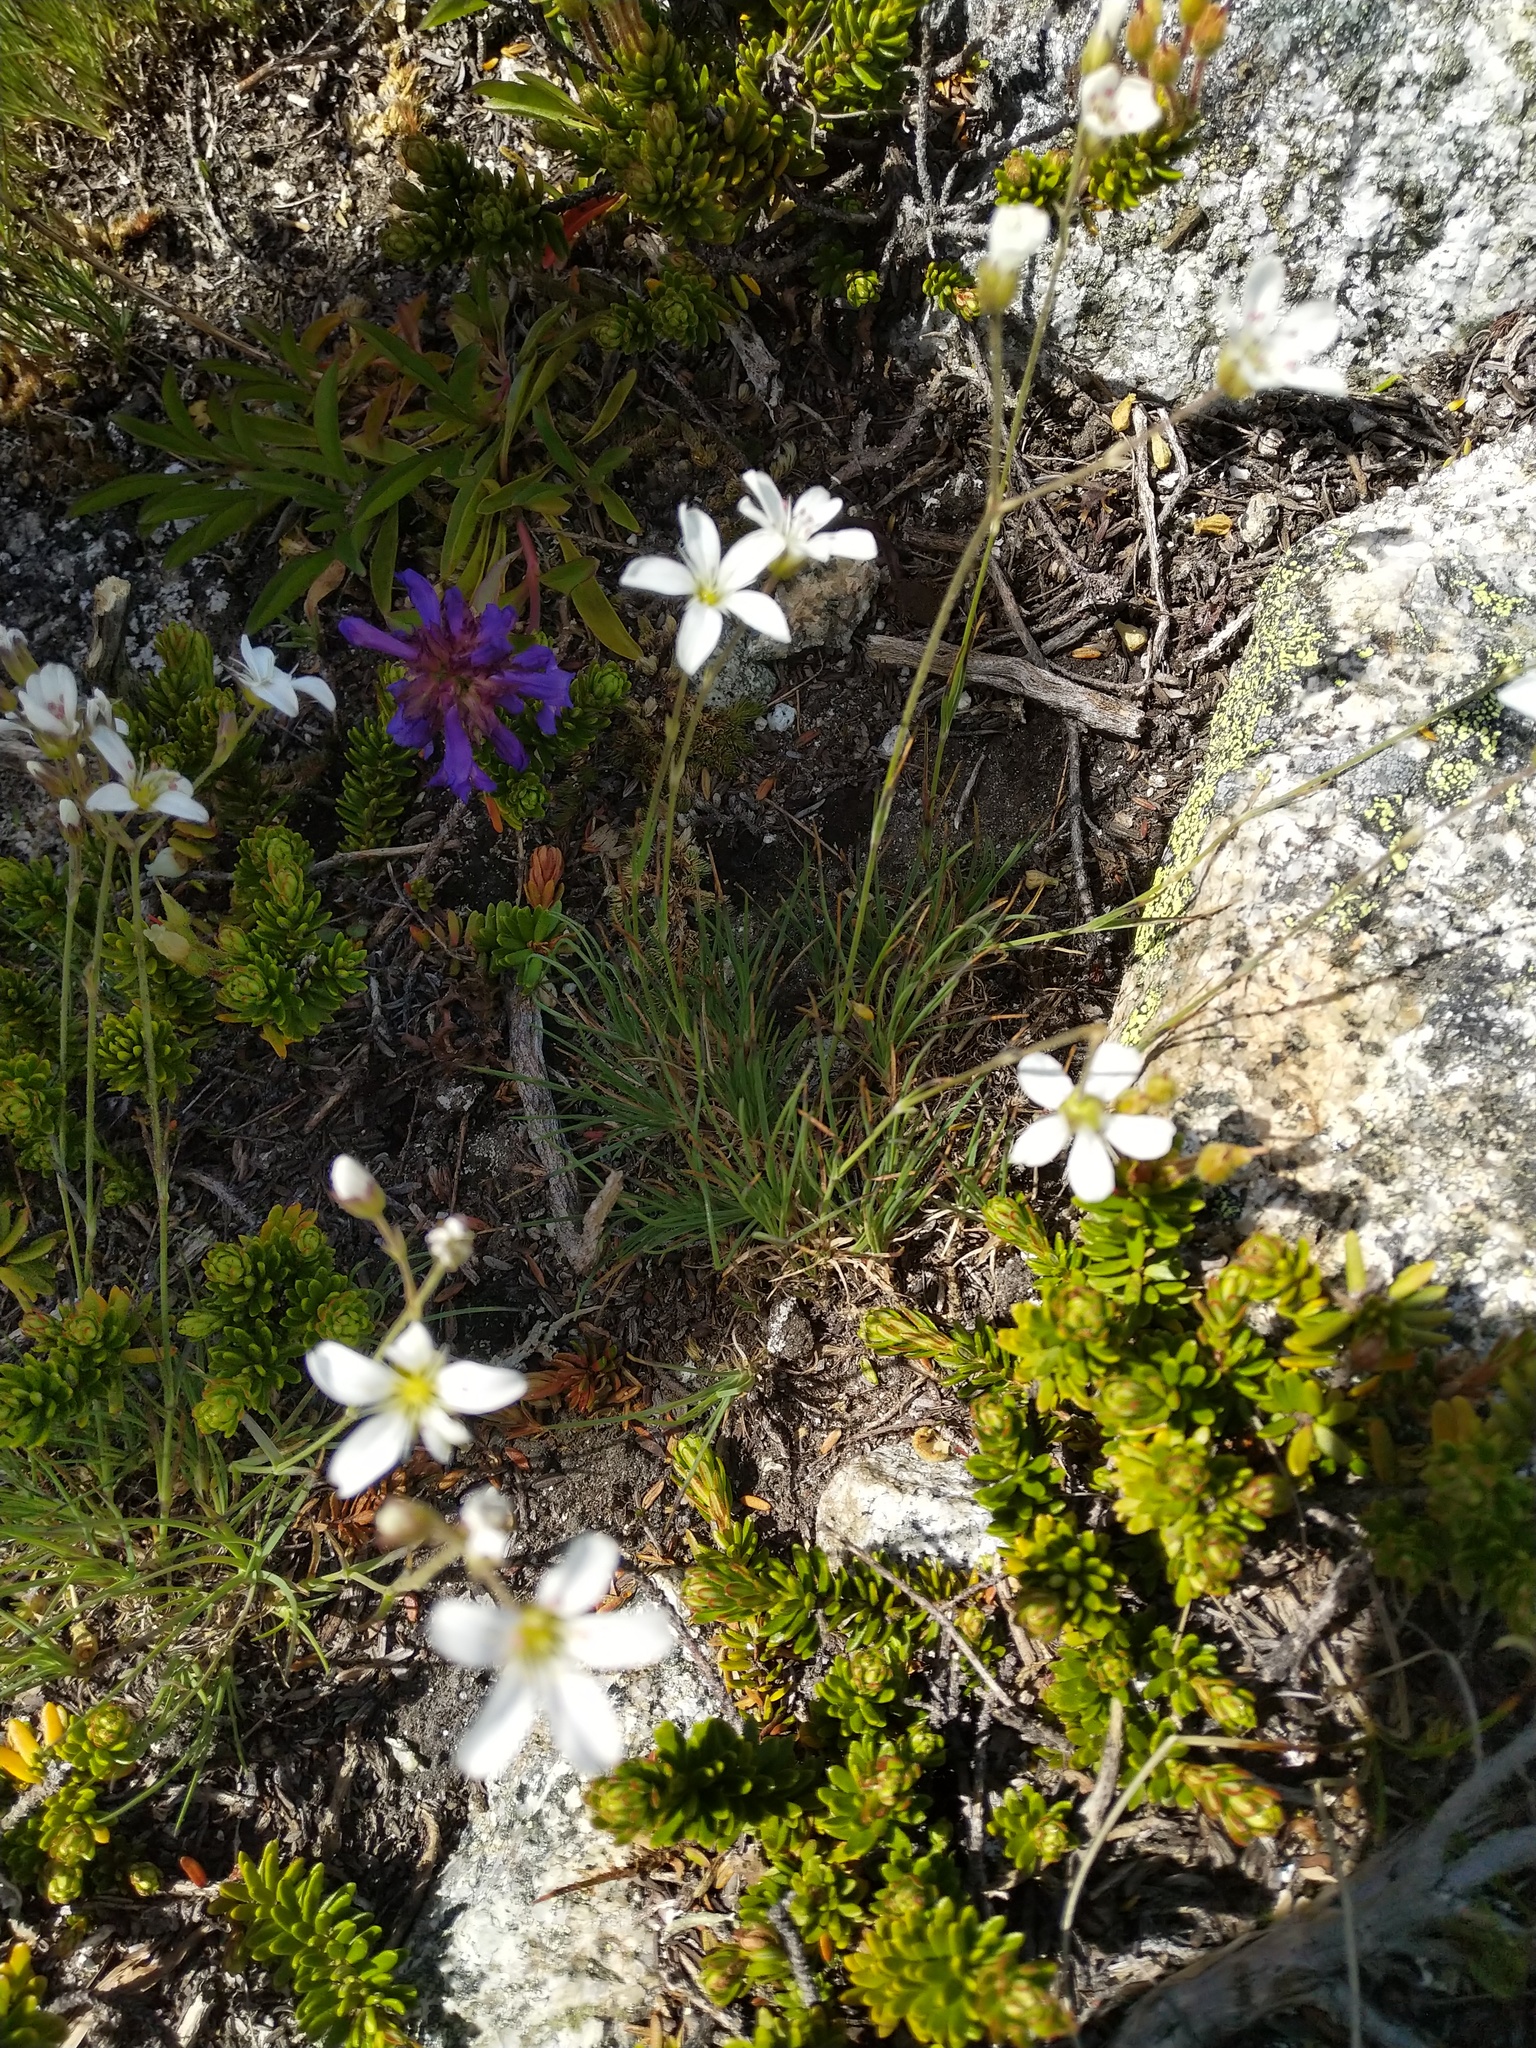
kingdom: Plantae
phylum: Tracheophyta
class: Magnoliopsida
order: Caryophyllales
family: Caryophyllaceae
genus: Eremogone
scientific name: Eremogone capillaris
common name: Slender mountain sandwort
